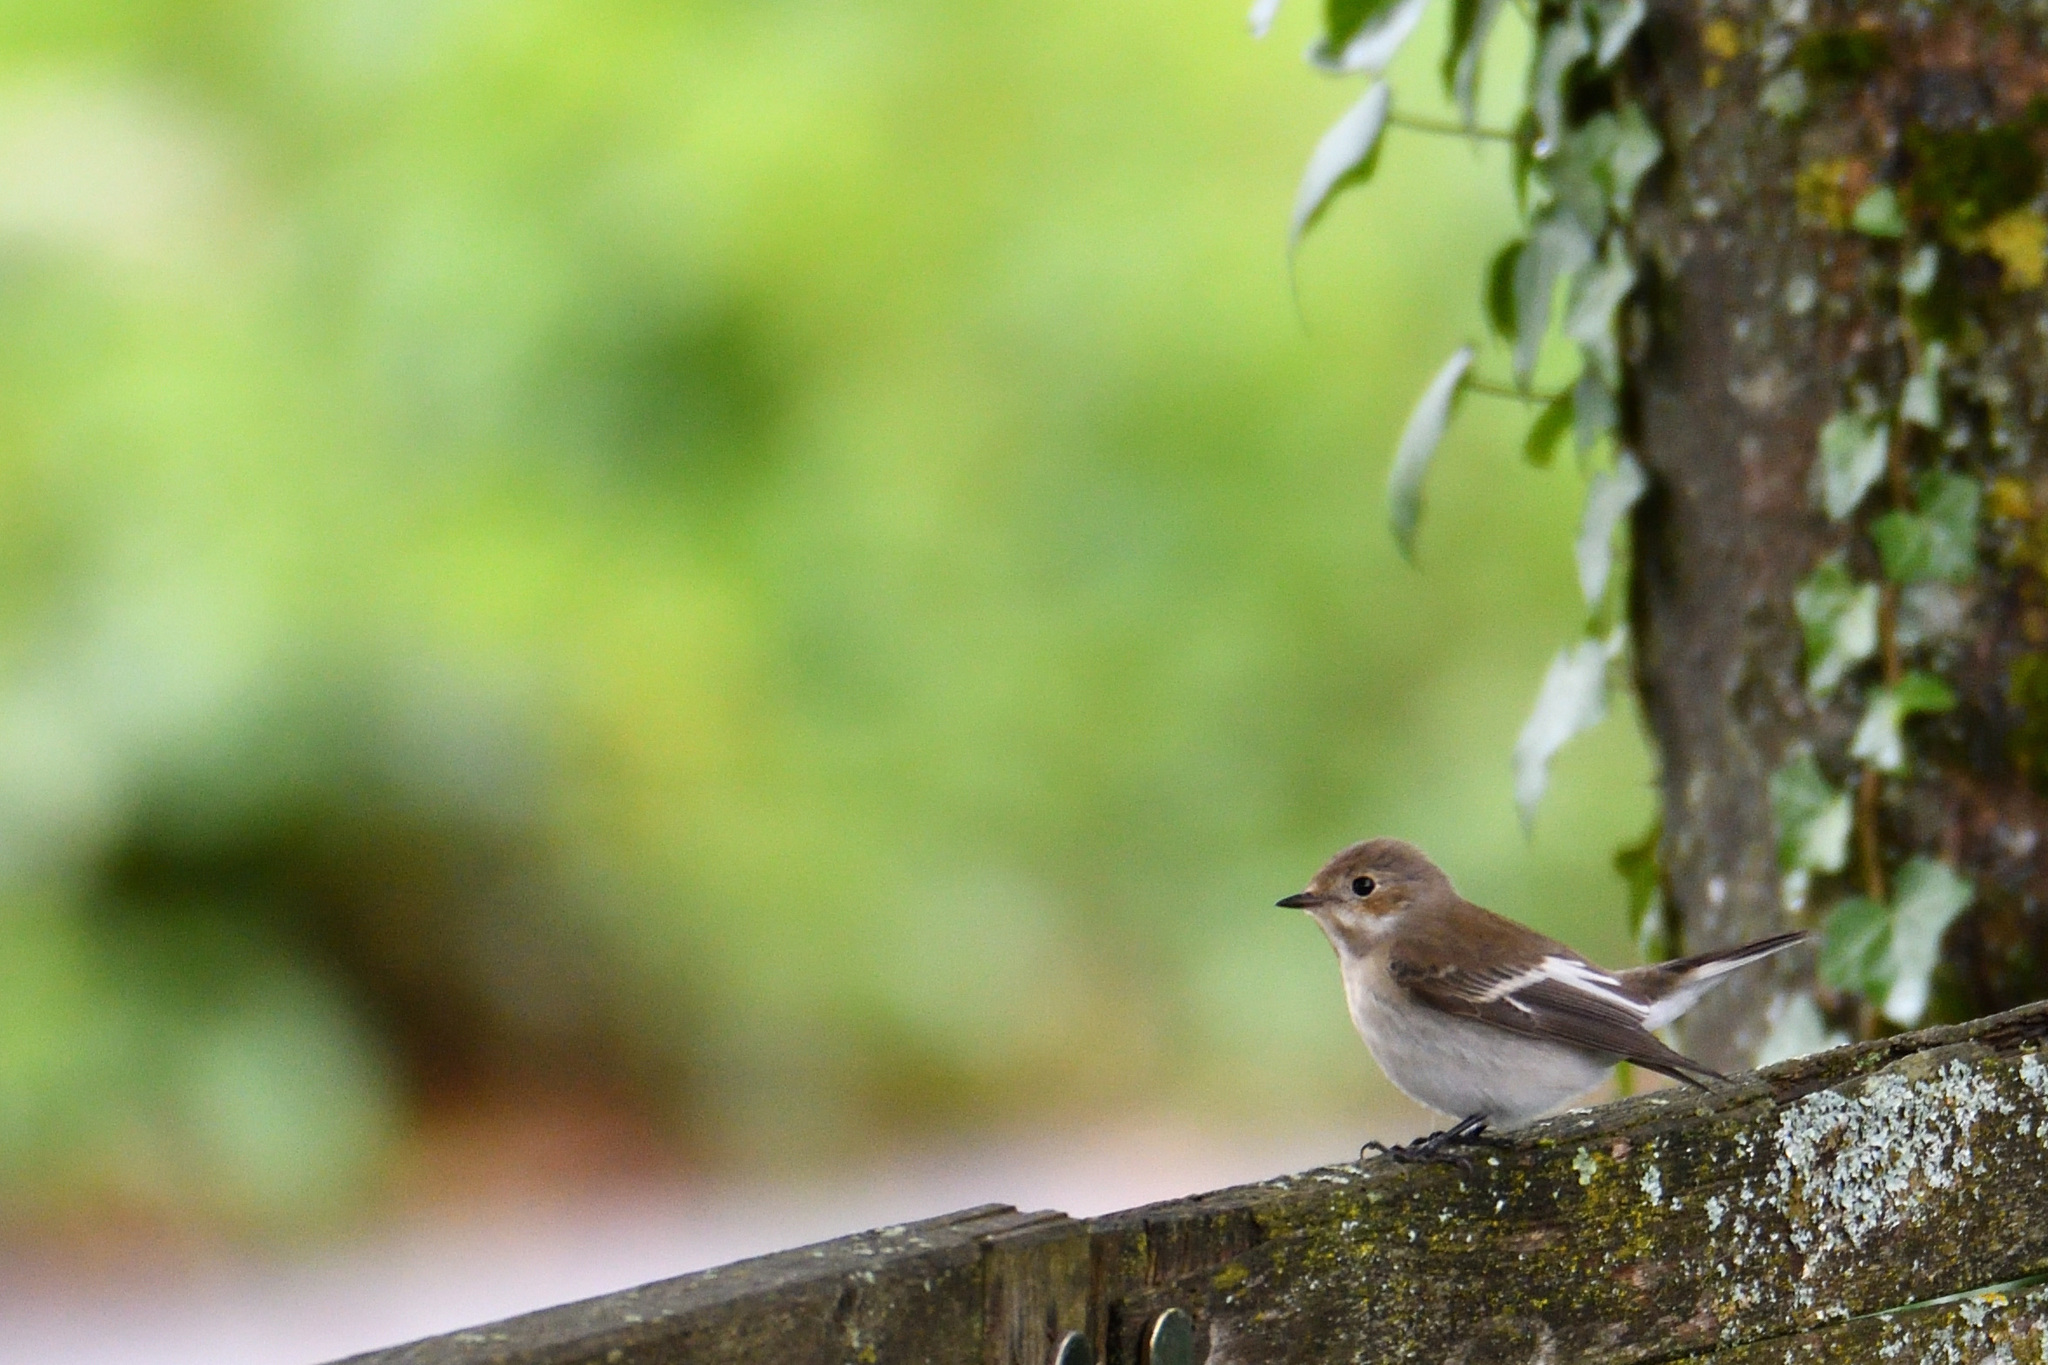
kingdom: Animalia
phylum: Chordata
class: Aves
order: Passeriformes
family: Muscicapidae
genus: Ficedula
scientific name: Ficedula hypoleuca
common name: European pied flycatcher
